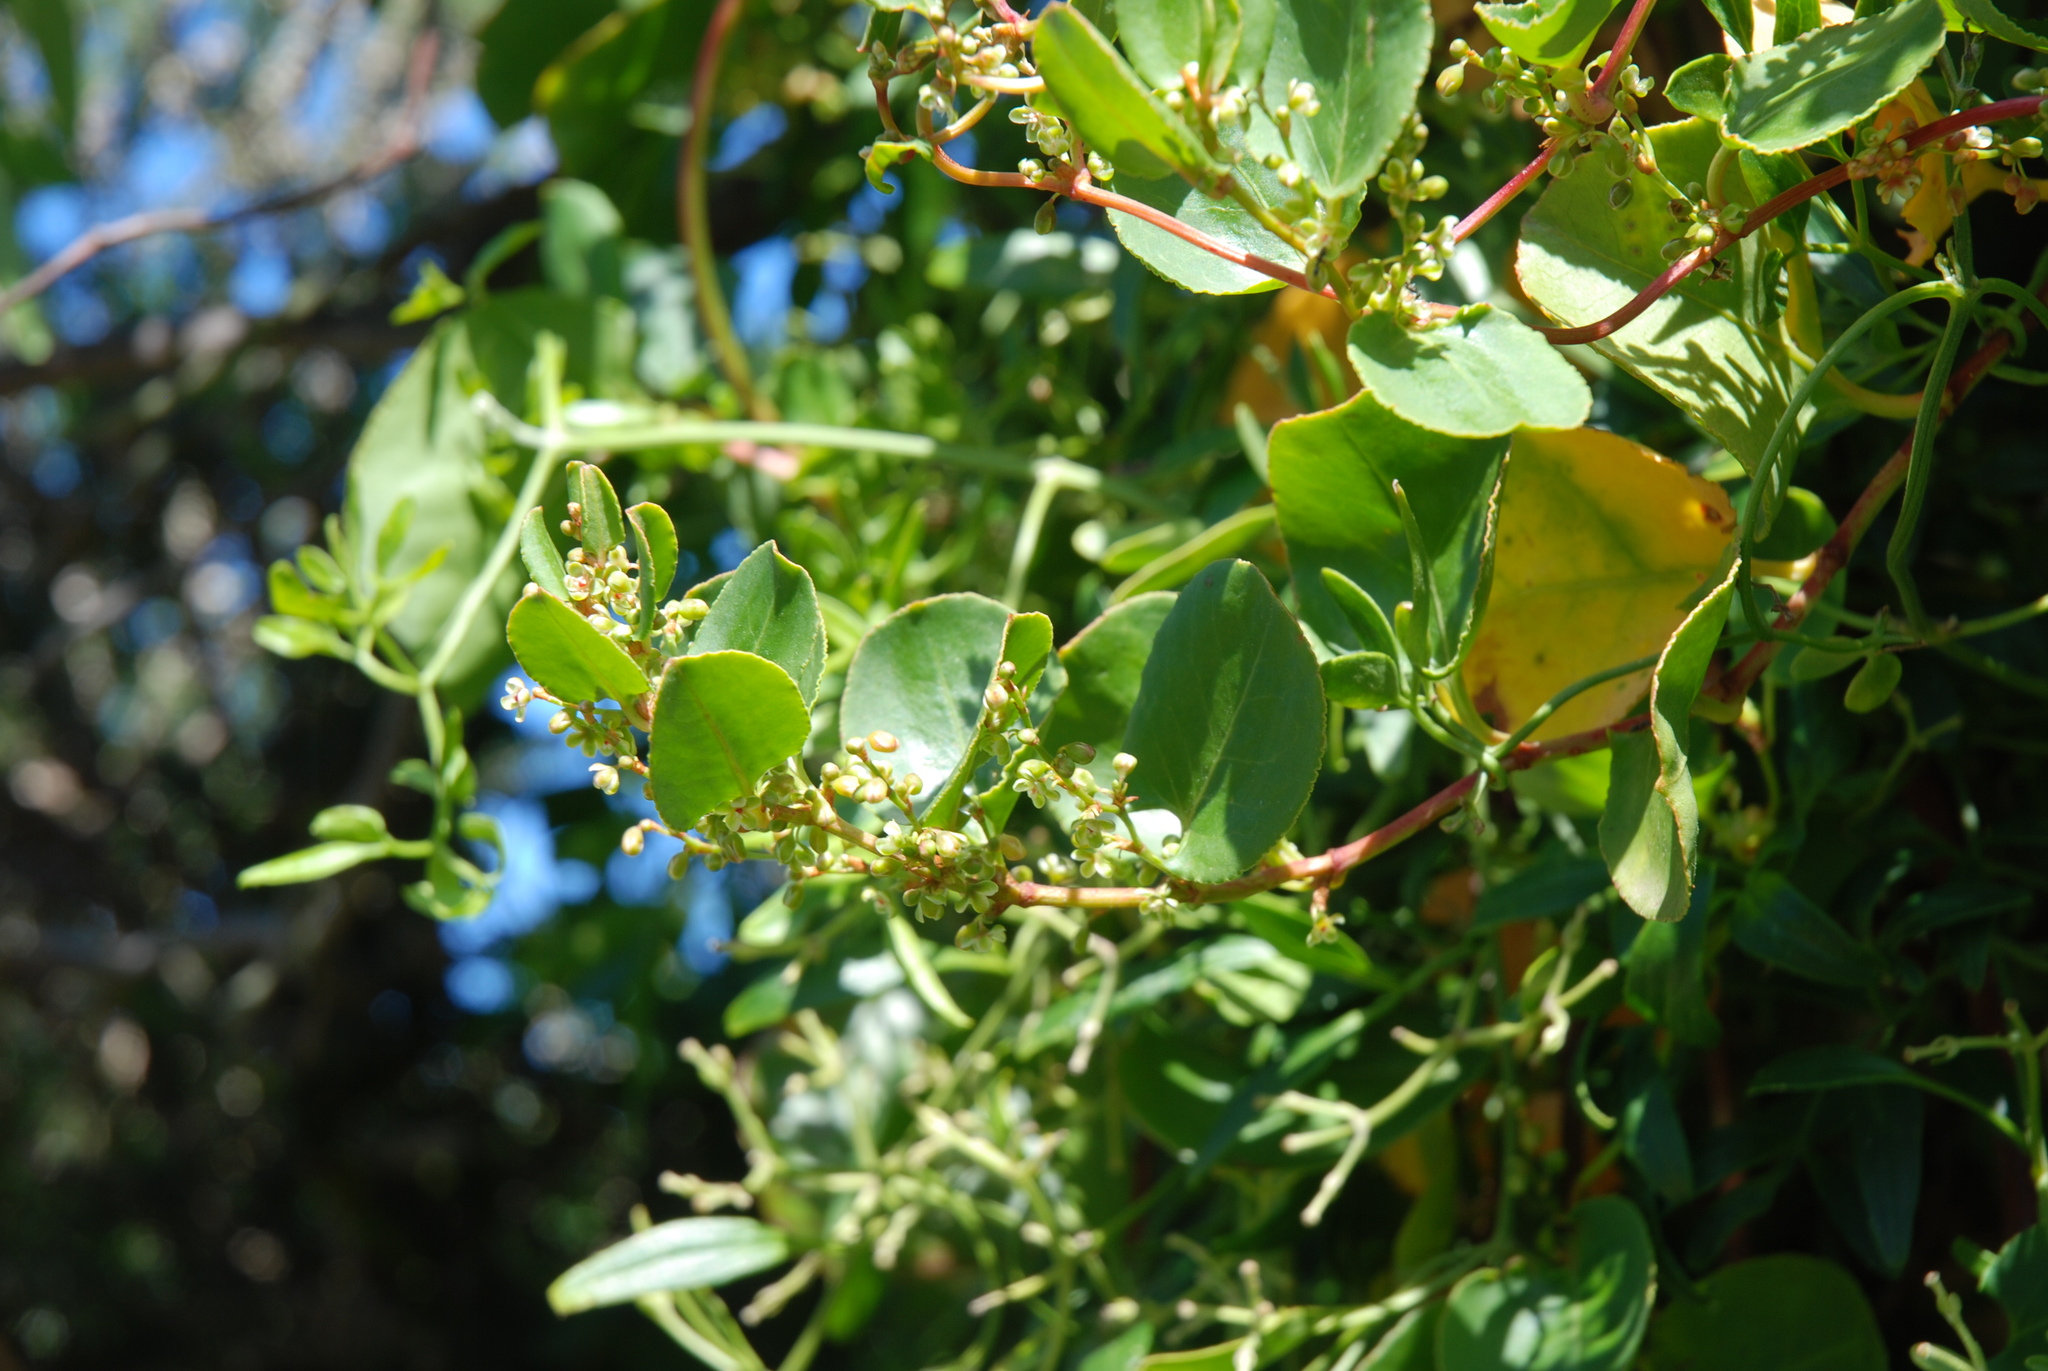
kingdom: Plantae
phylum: Tracheophyta
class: Magnoliopsida
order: Caryophyllales
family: Polygonaceae
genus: Muehlenbeckia
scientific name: Muehlenbeckia adpressa
